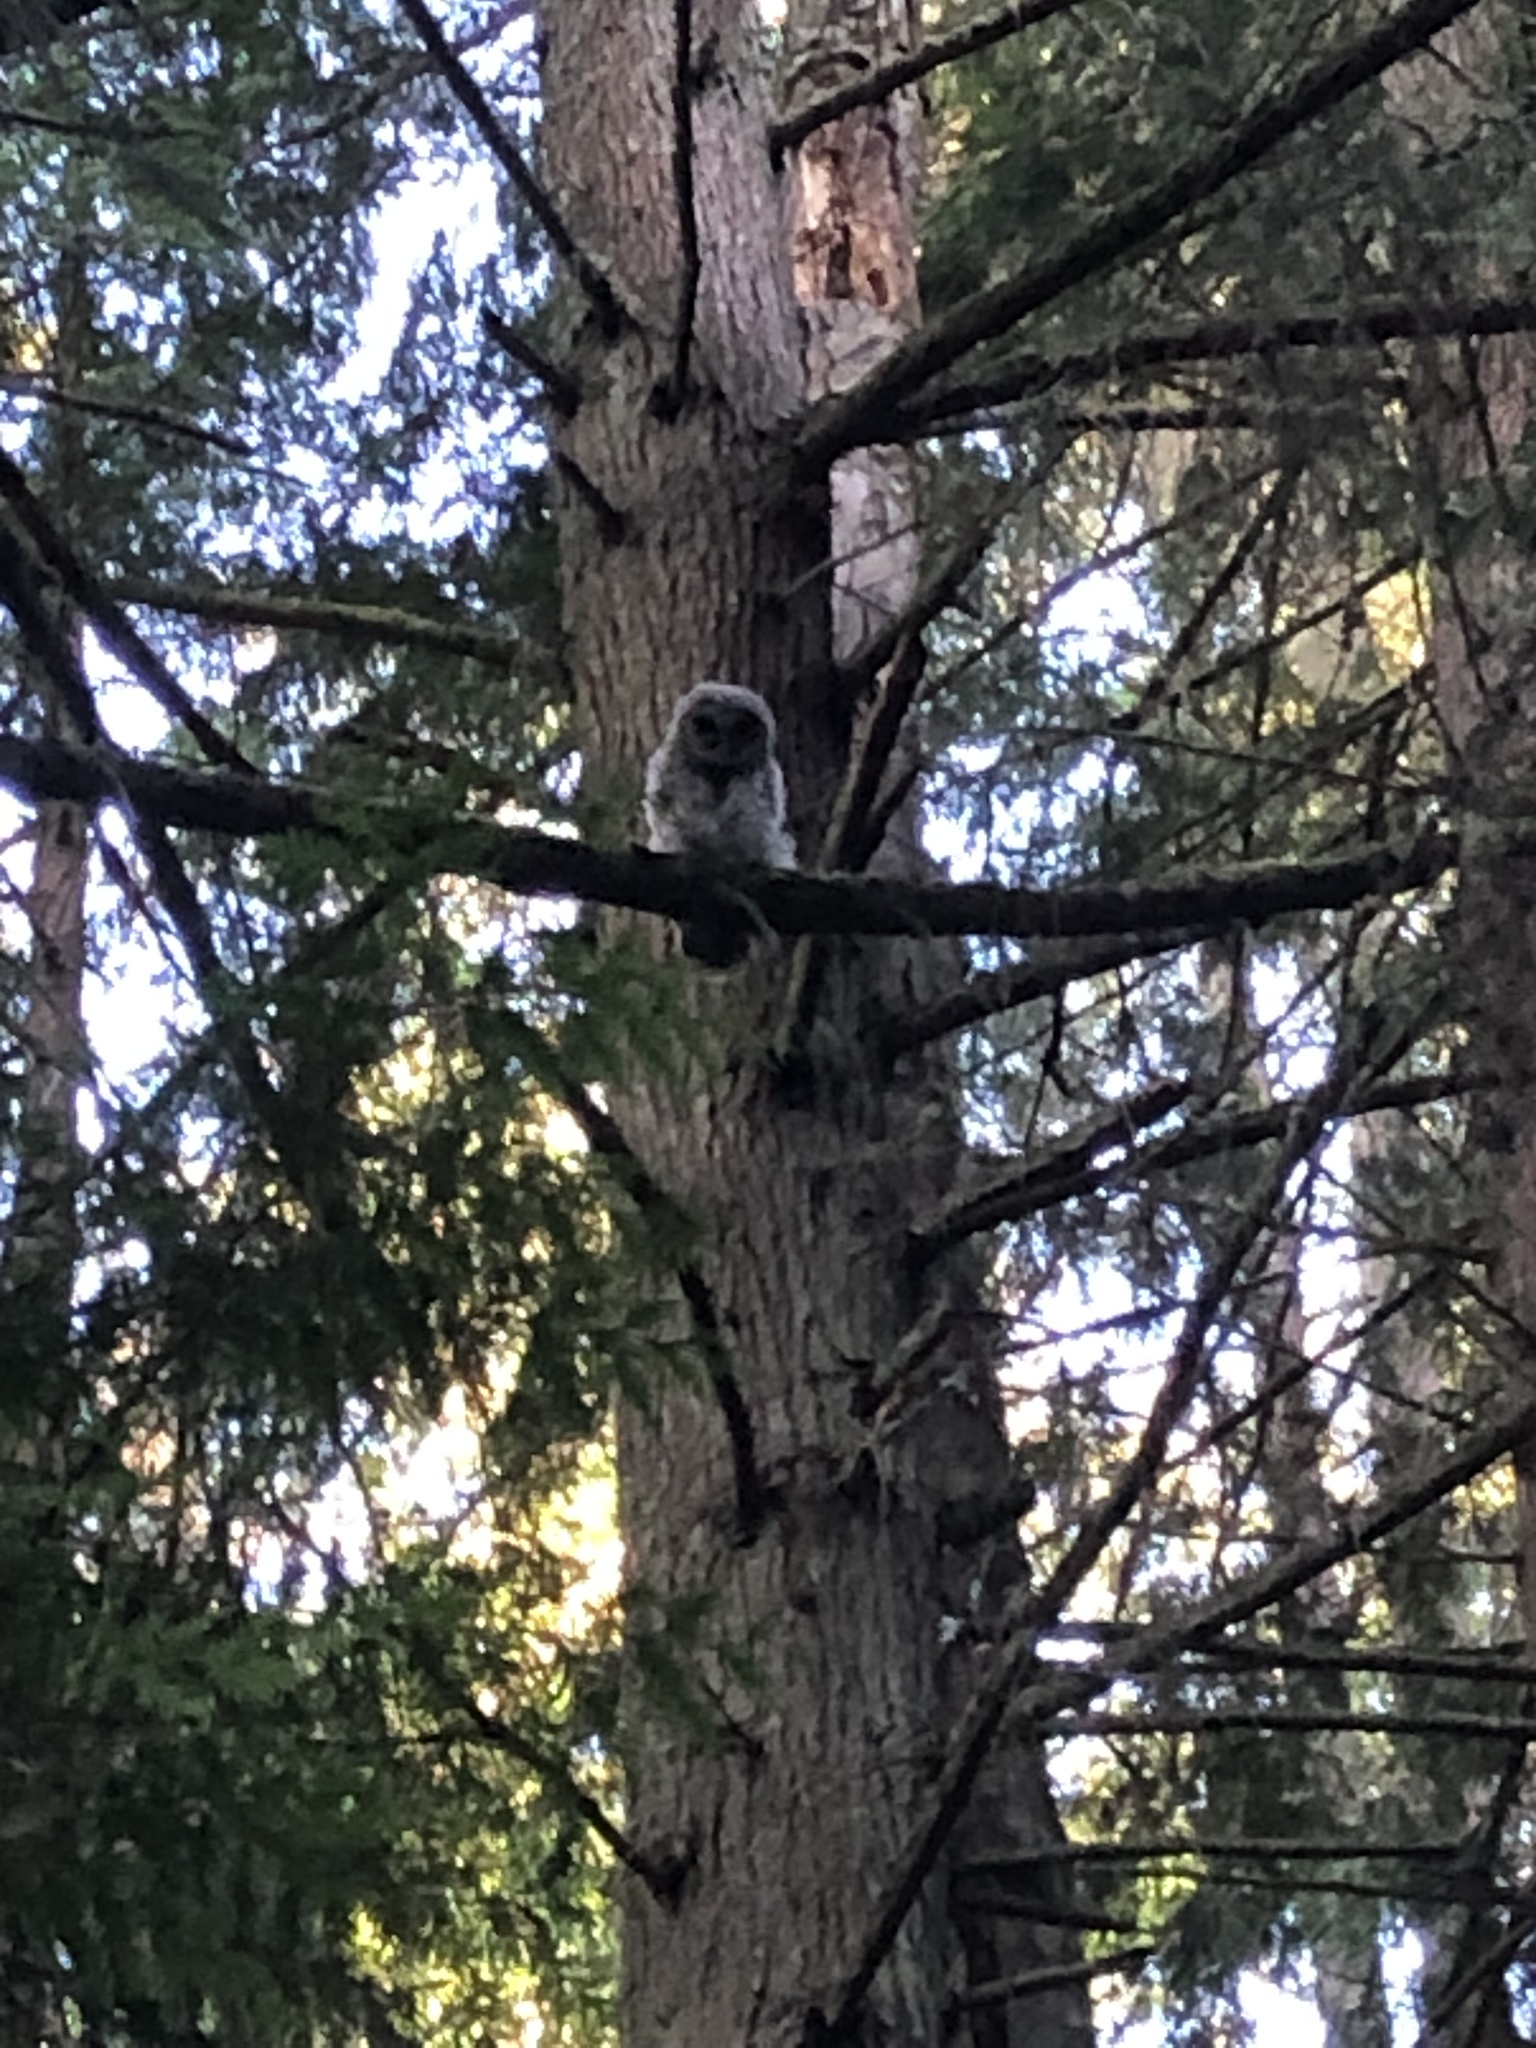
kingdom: Animalia
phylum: Chordata
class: Aves
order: Strigiformes
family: Strigidae
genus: Strix
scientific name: Strix varia
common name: Barred owl
